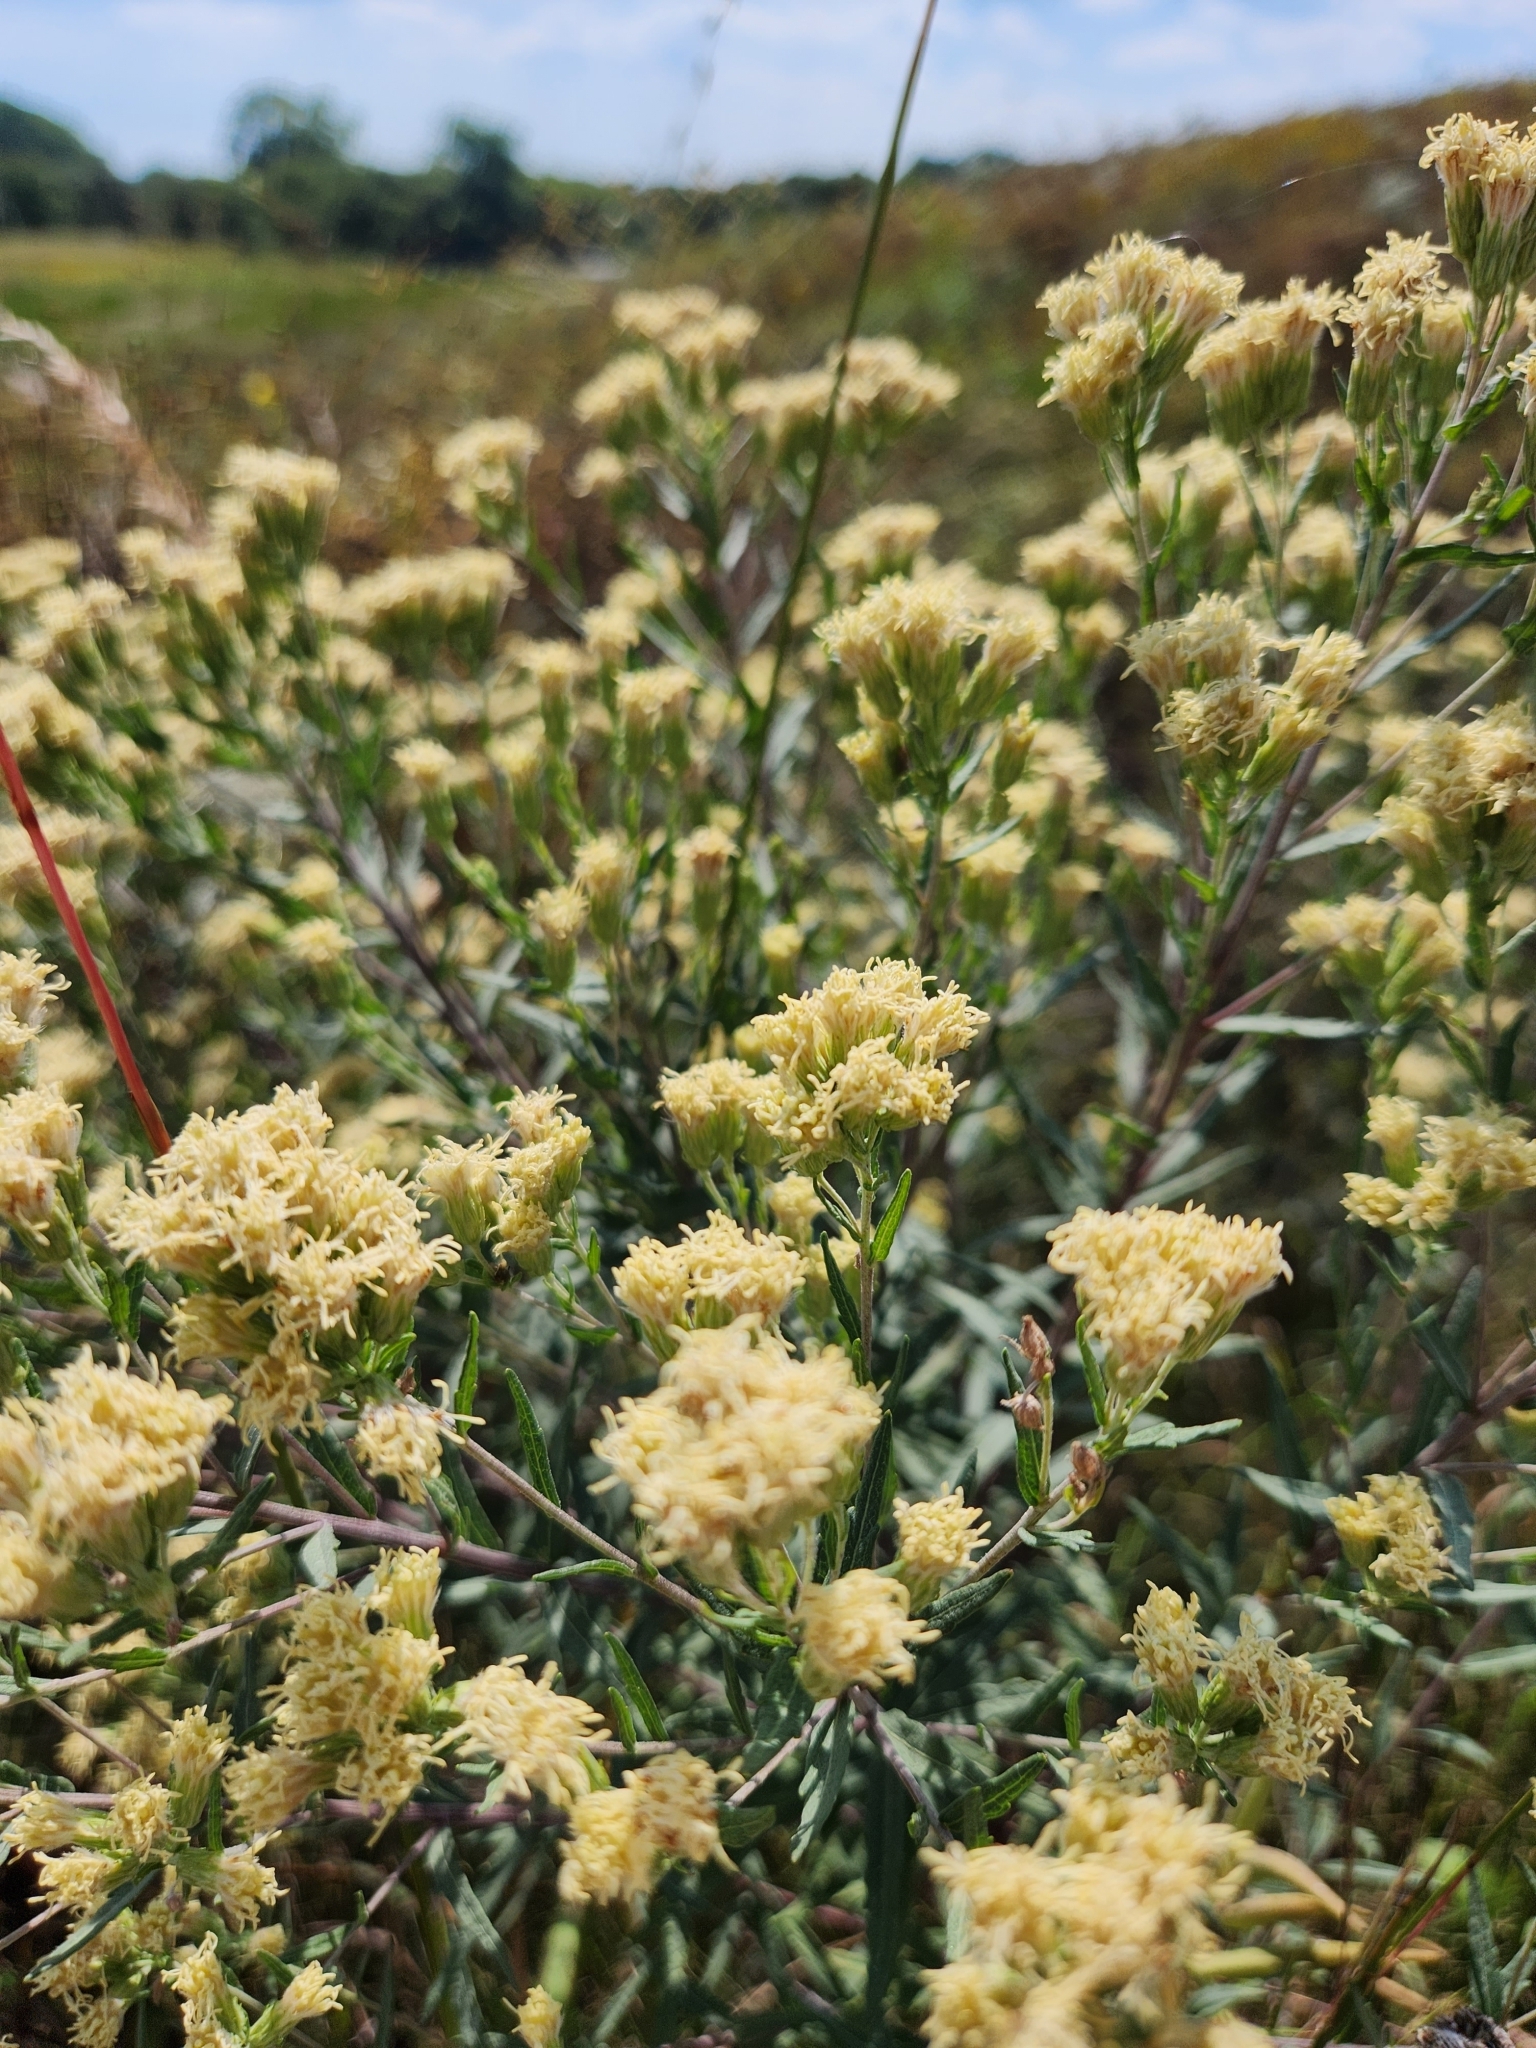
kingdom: Plantae
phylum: Tracheophyta
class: Magnoliopsida
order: Asterales
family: Asteraceae
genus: Brickellia
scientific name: Brickellia eupatorioides
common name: False boneset
